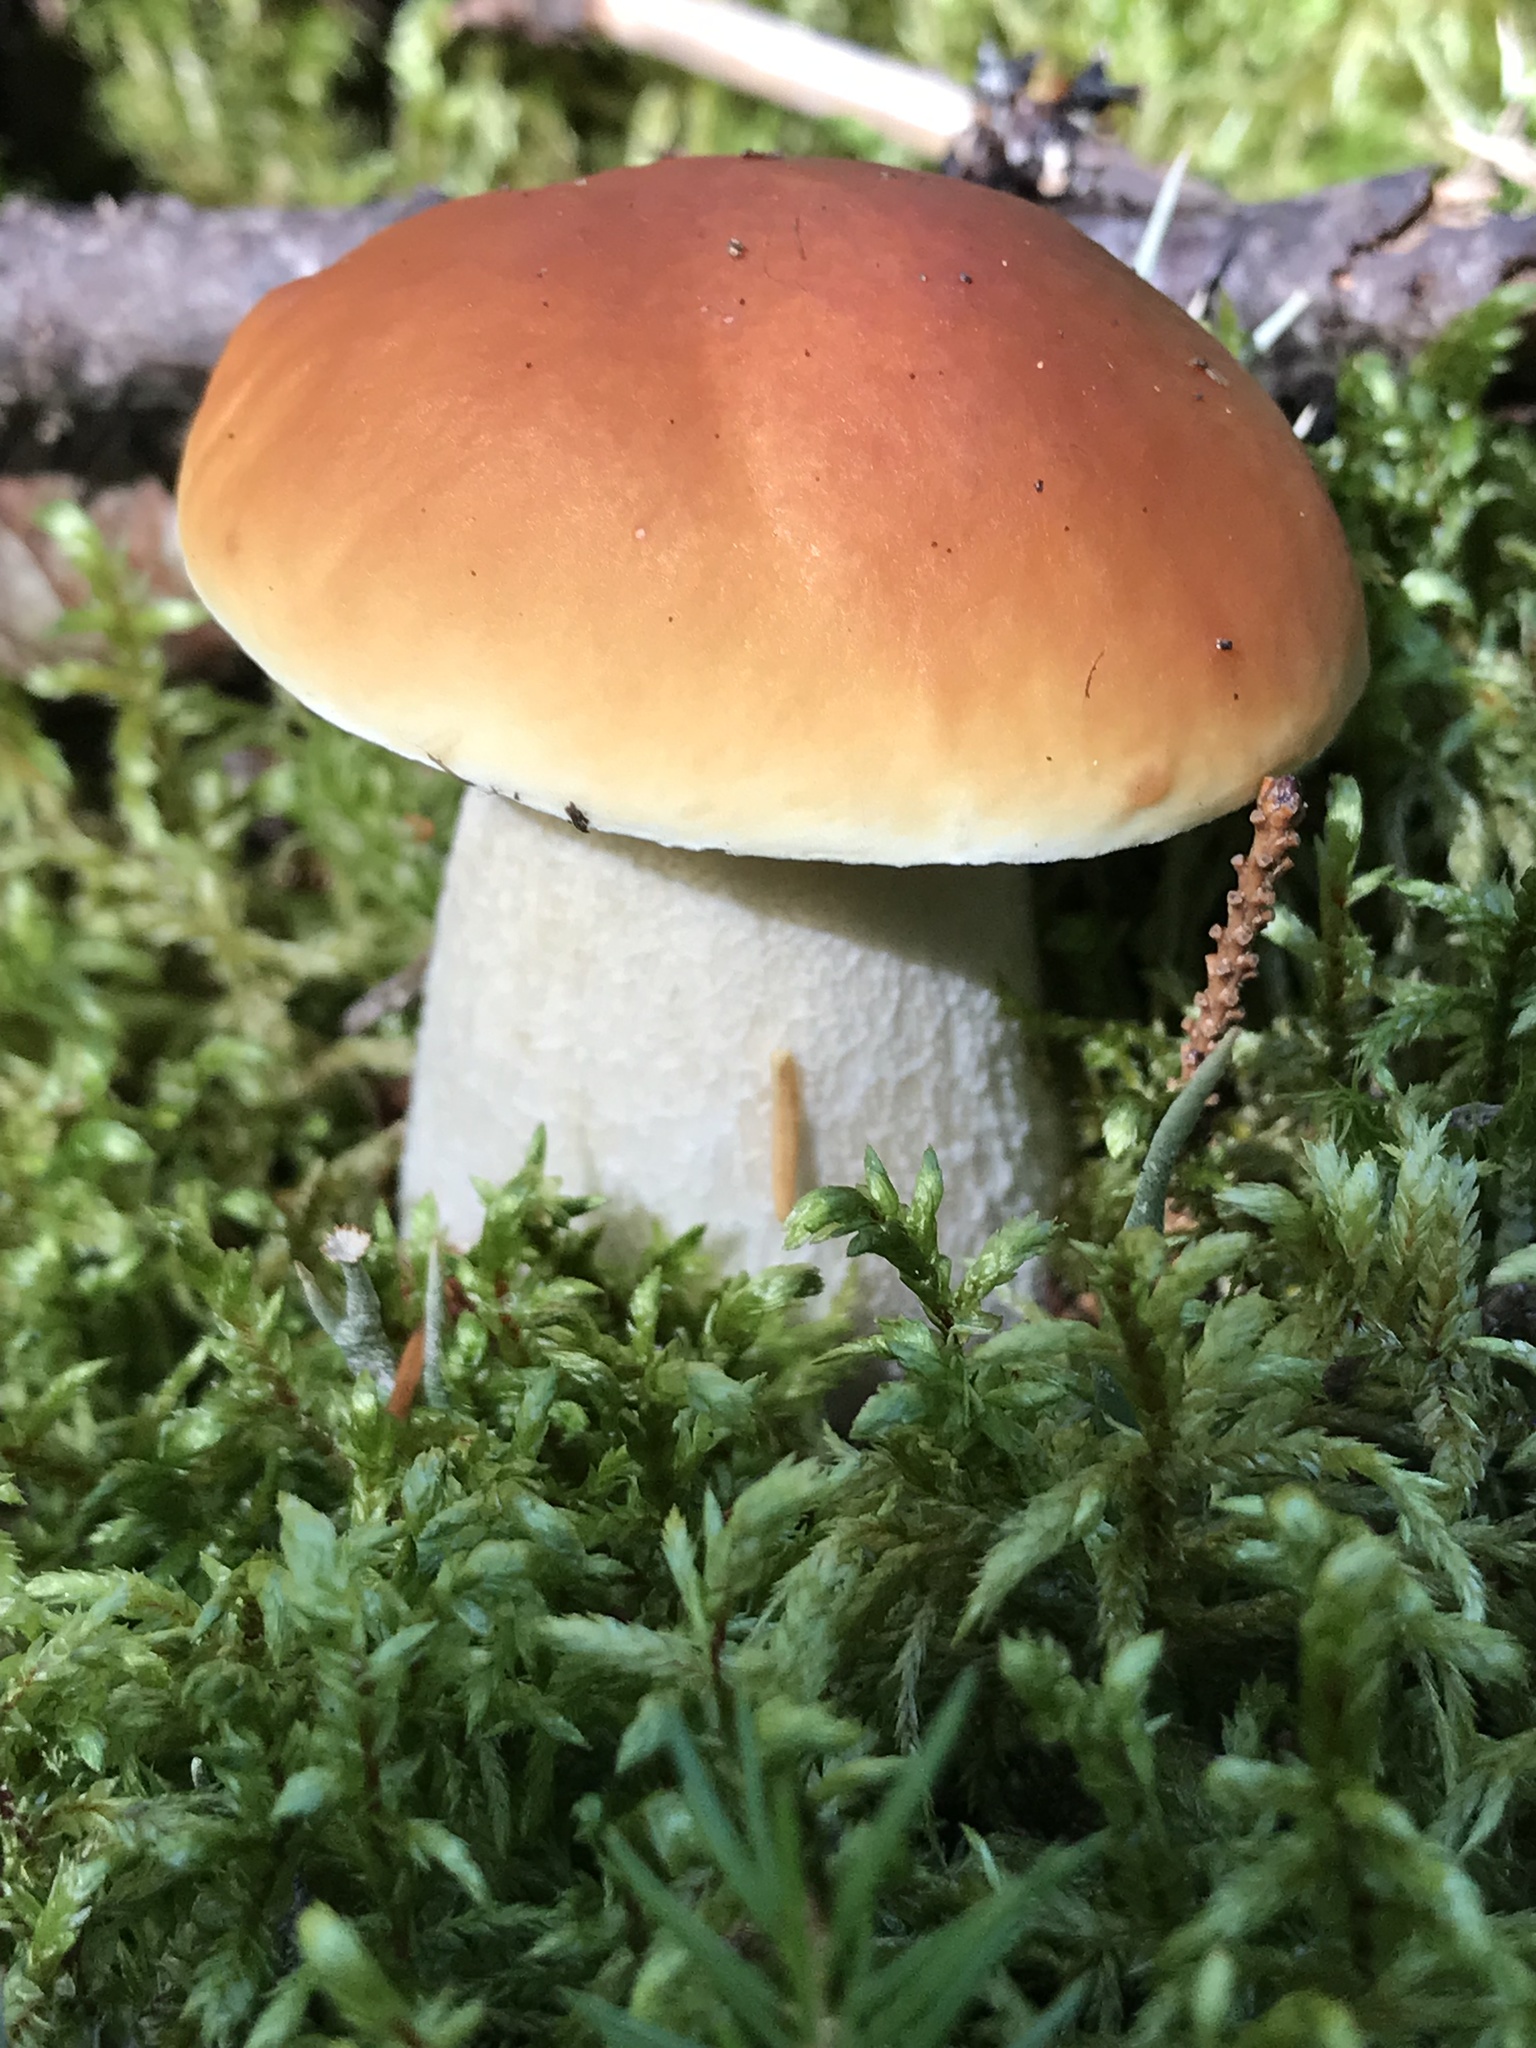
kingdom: Fungi
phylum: Basidiomycota
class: Agaricomycetes
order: Boletales
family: Boletaceae
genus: Boletus
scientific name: Boletus edulis
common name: Cep
